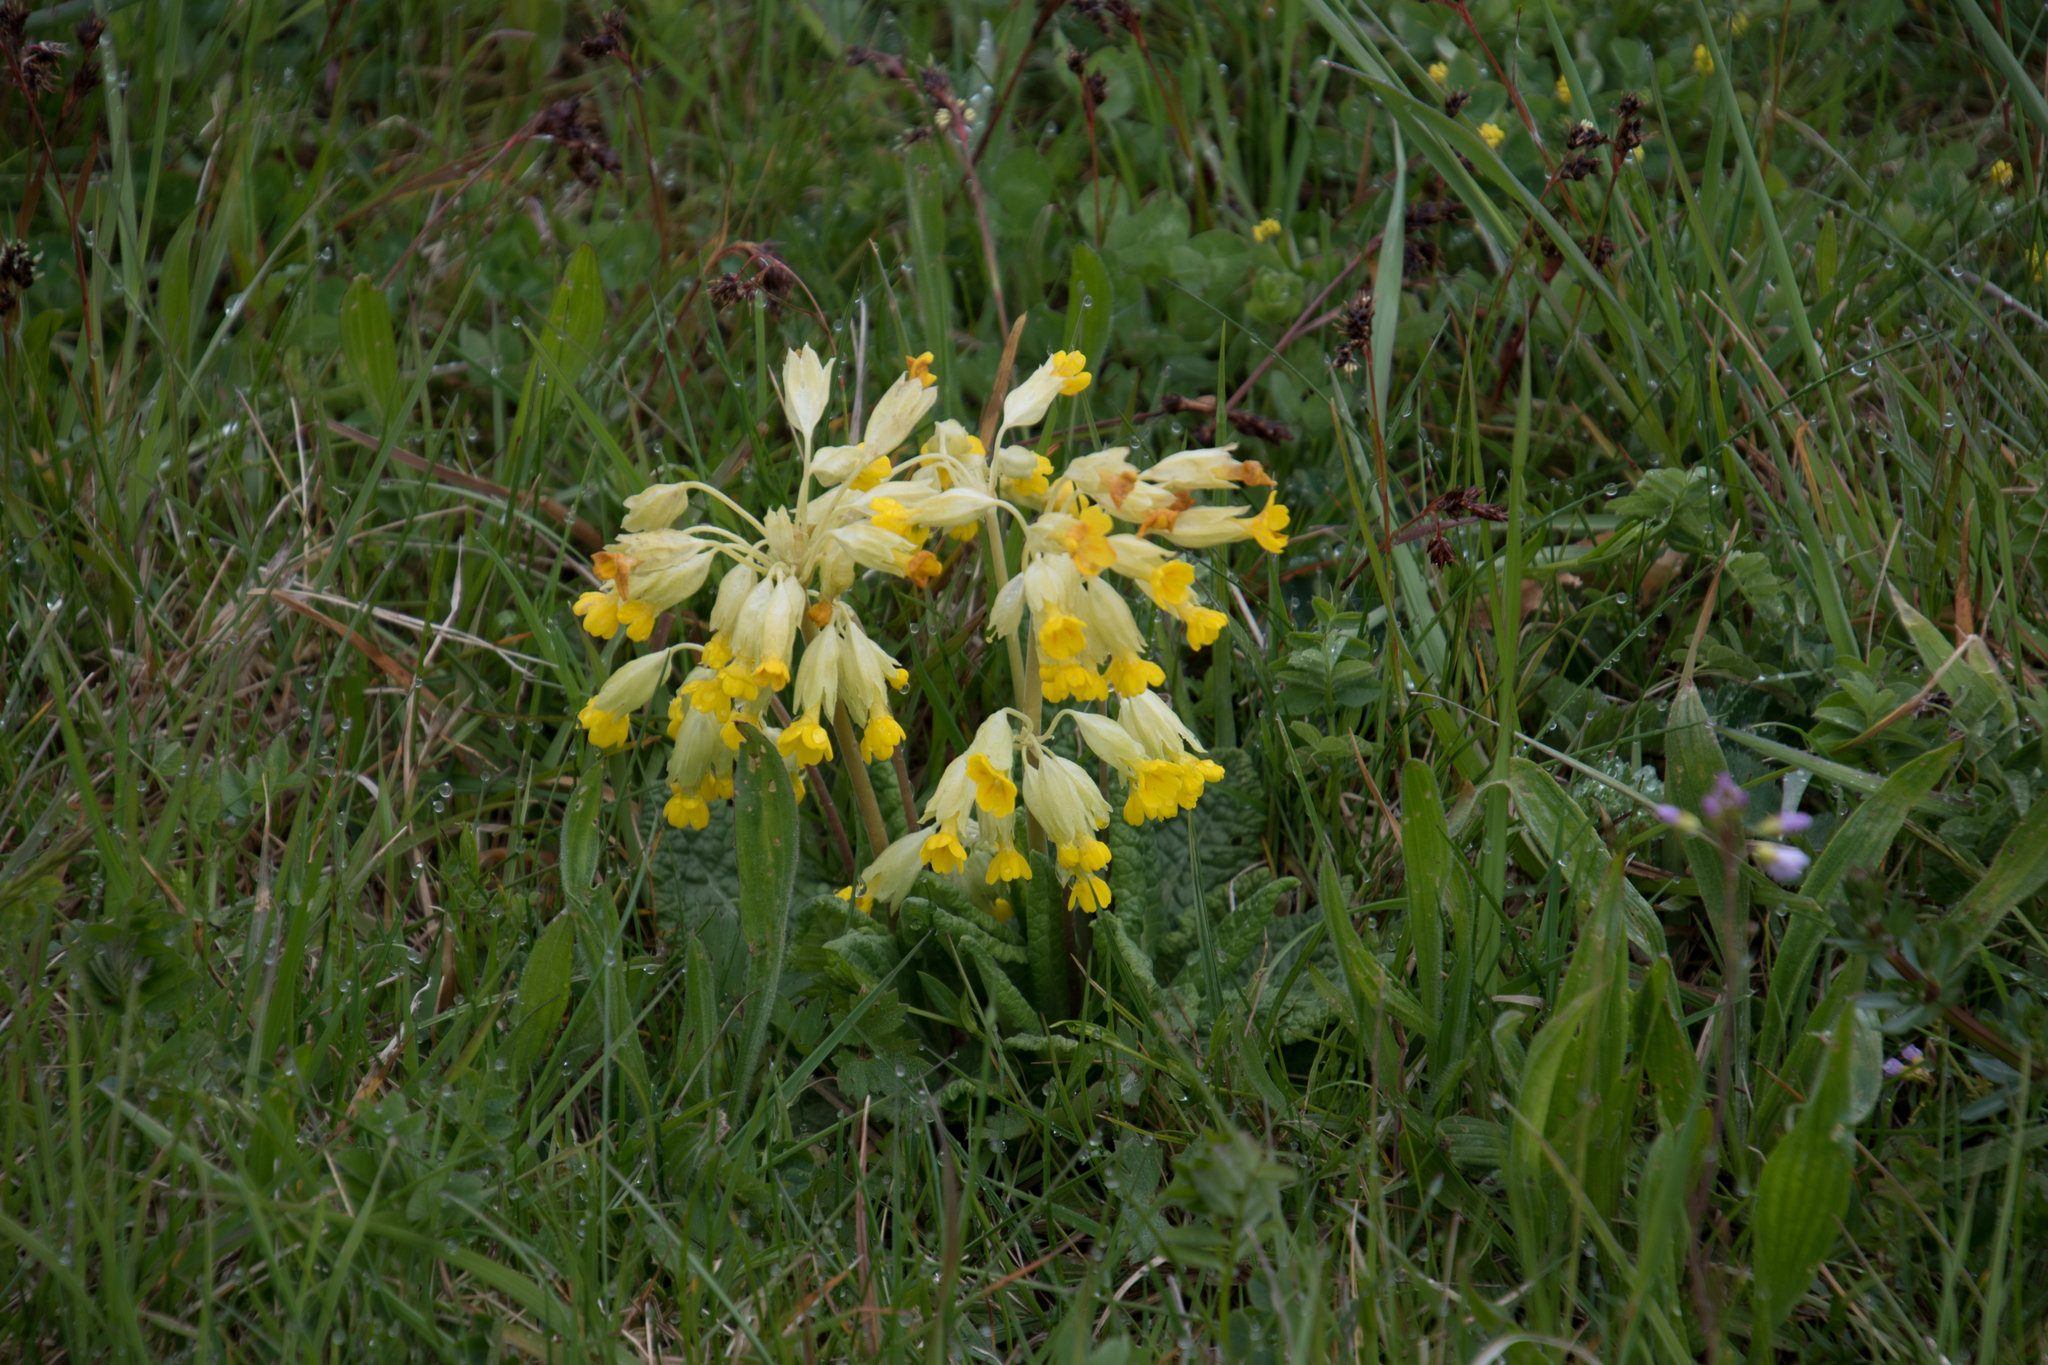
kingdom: Plantae
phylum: Tracheophyta
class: Magnoliopsida
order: Ericales
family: Primulaceae
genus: Primula
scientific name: Primula veris
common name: Cowslip
